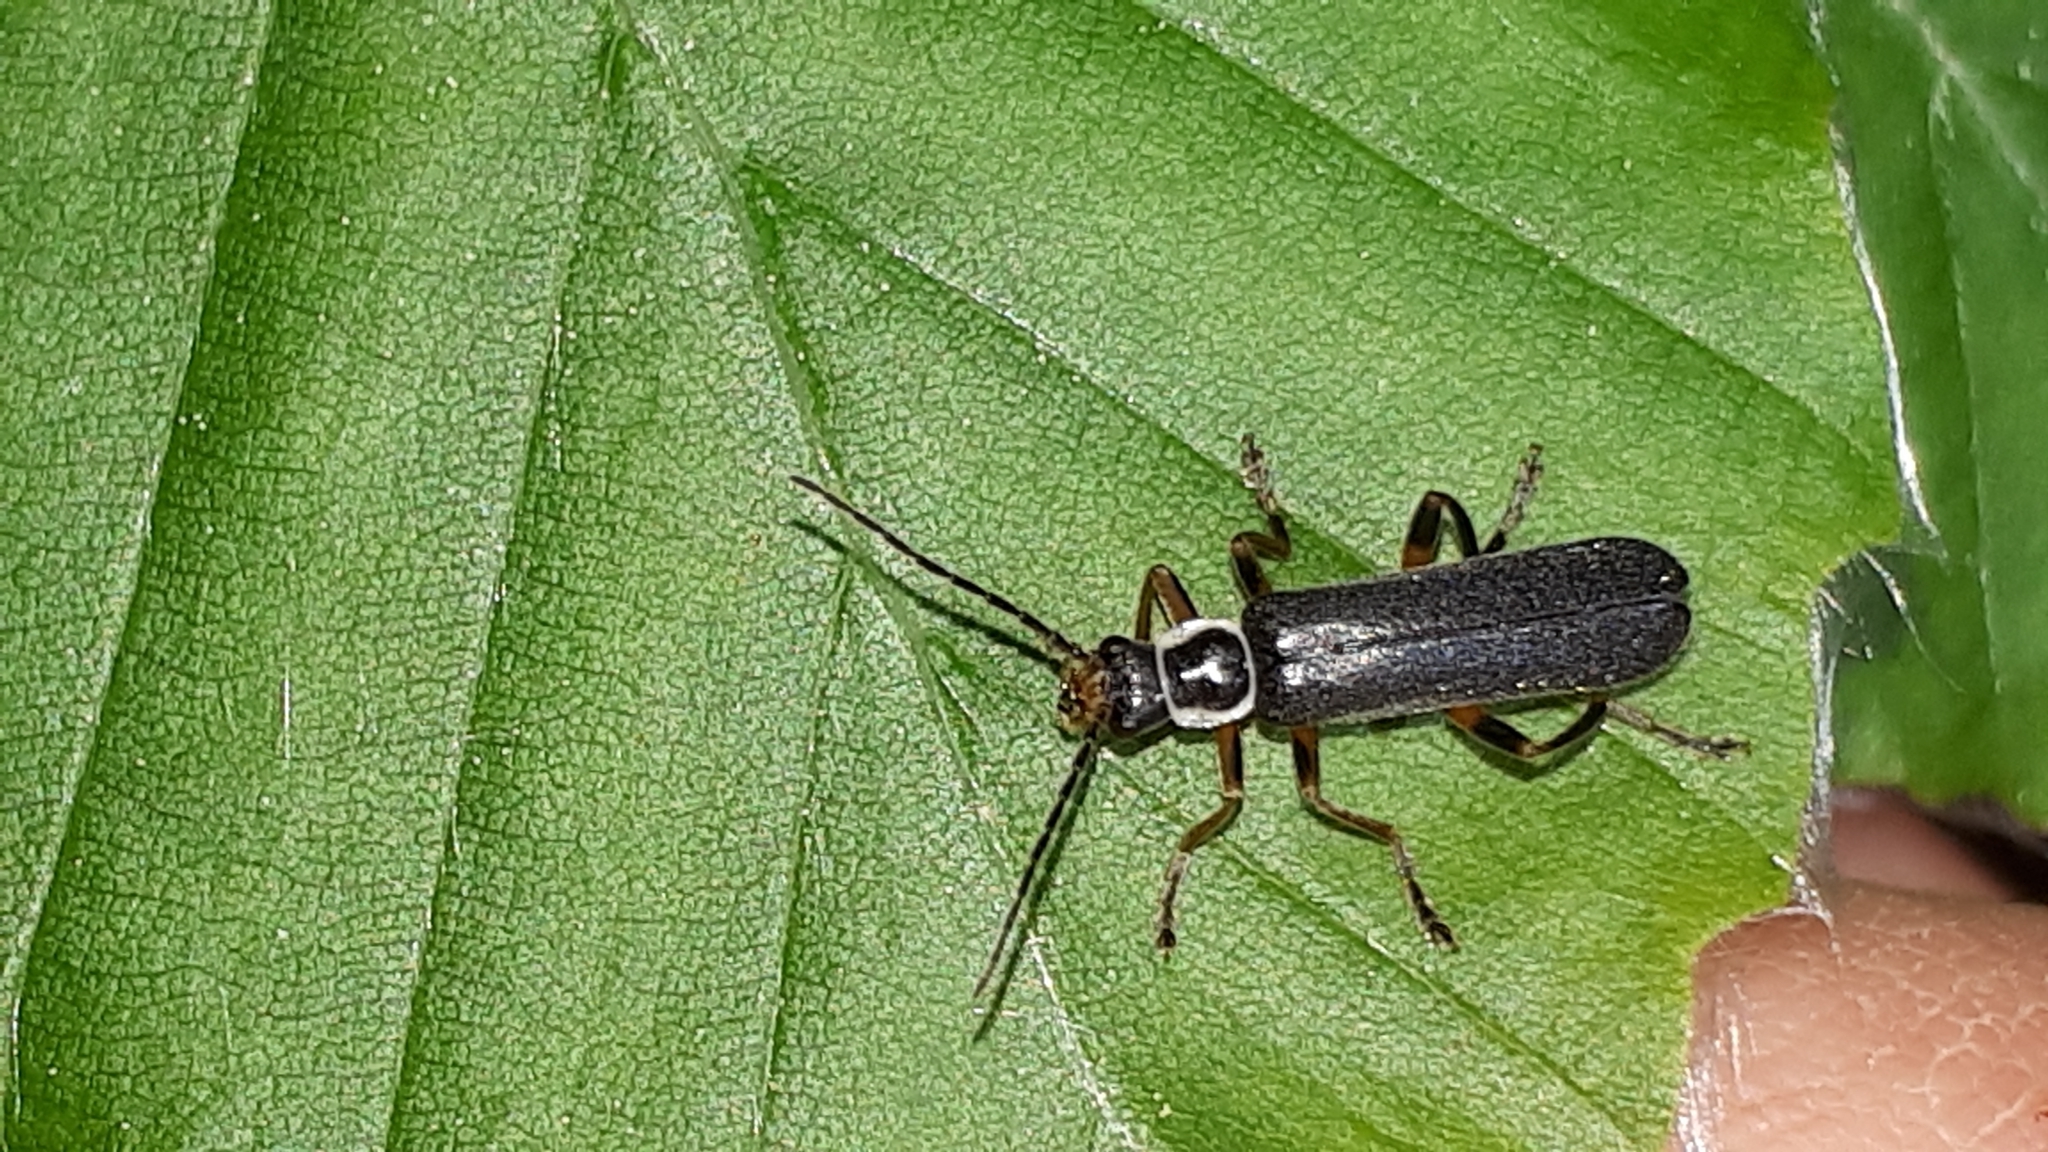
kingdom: Animalia
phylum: Arthropoda
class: Insecta
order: Coleoptera
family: Cantharidae
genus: Cantharis
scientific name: Cantharis pagana
